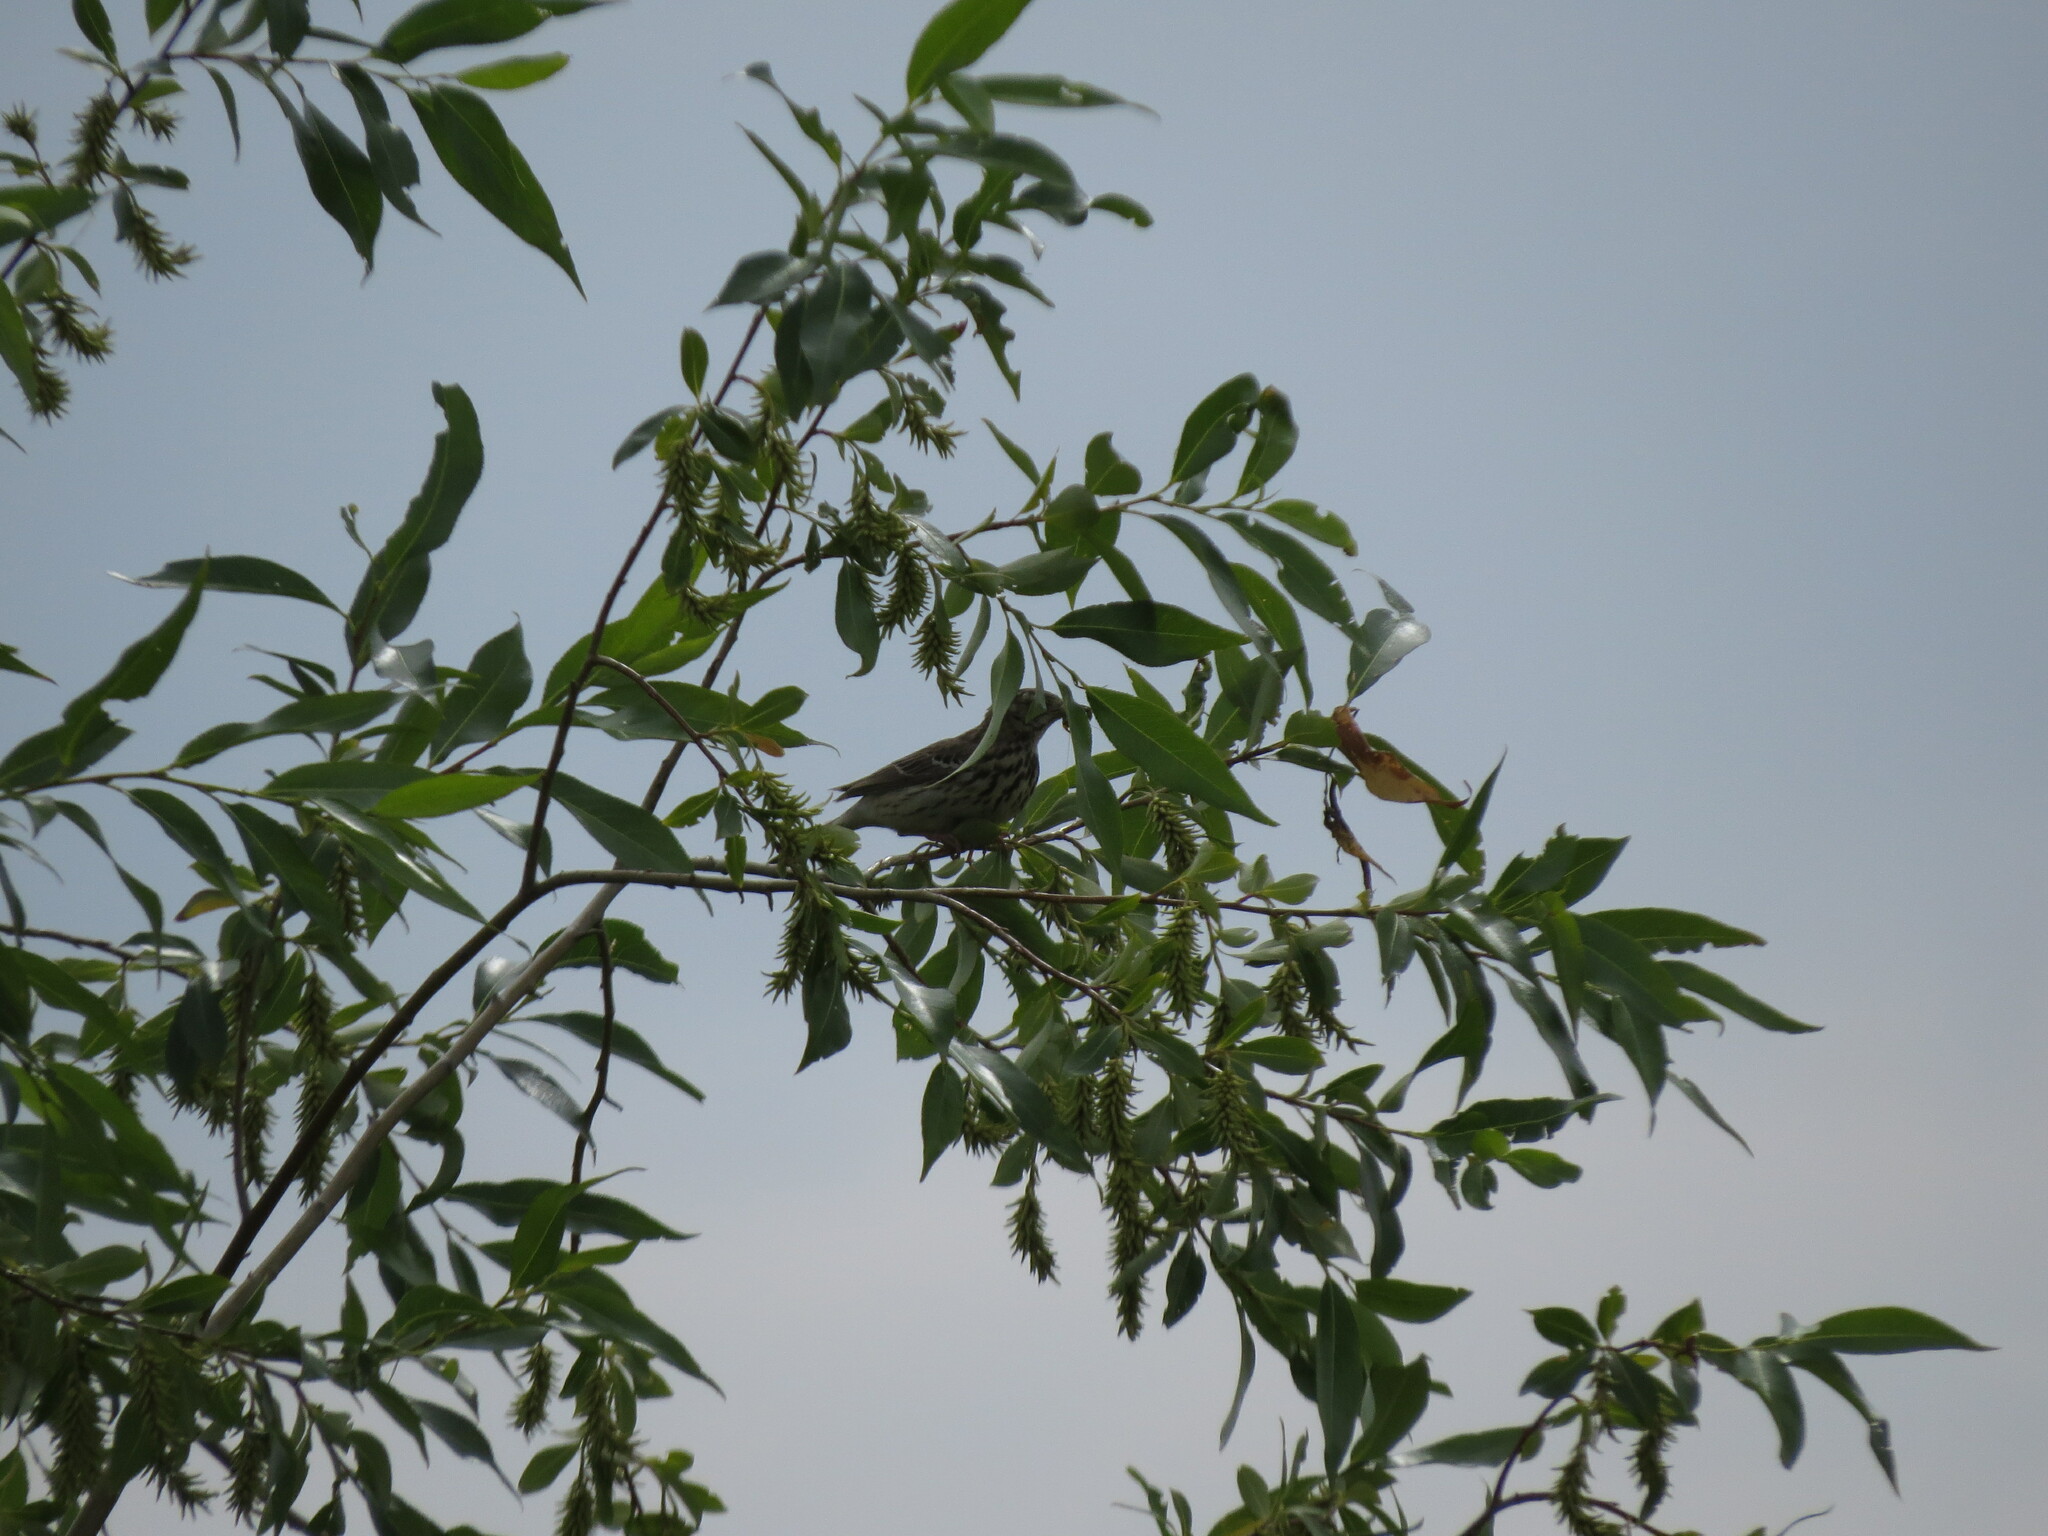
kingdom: Animalia
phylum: Chordata
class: Aves
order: Passeriformes
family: Motacillidae
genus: Anthus
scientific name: Anthus trivialis
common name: Tree pipit
